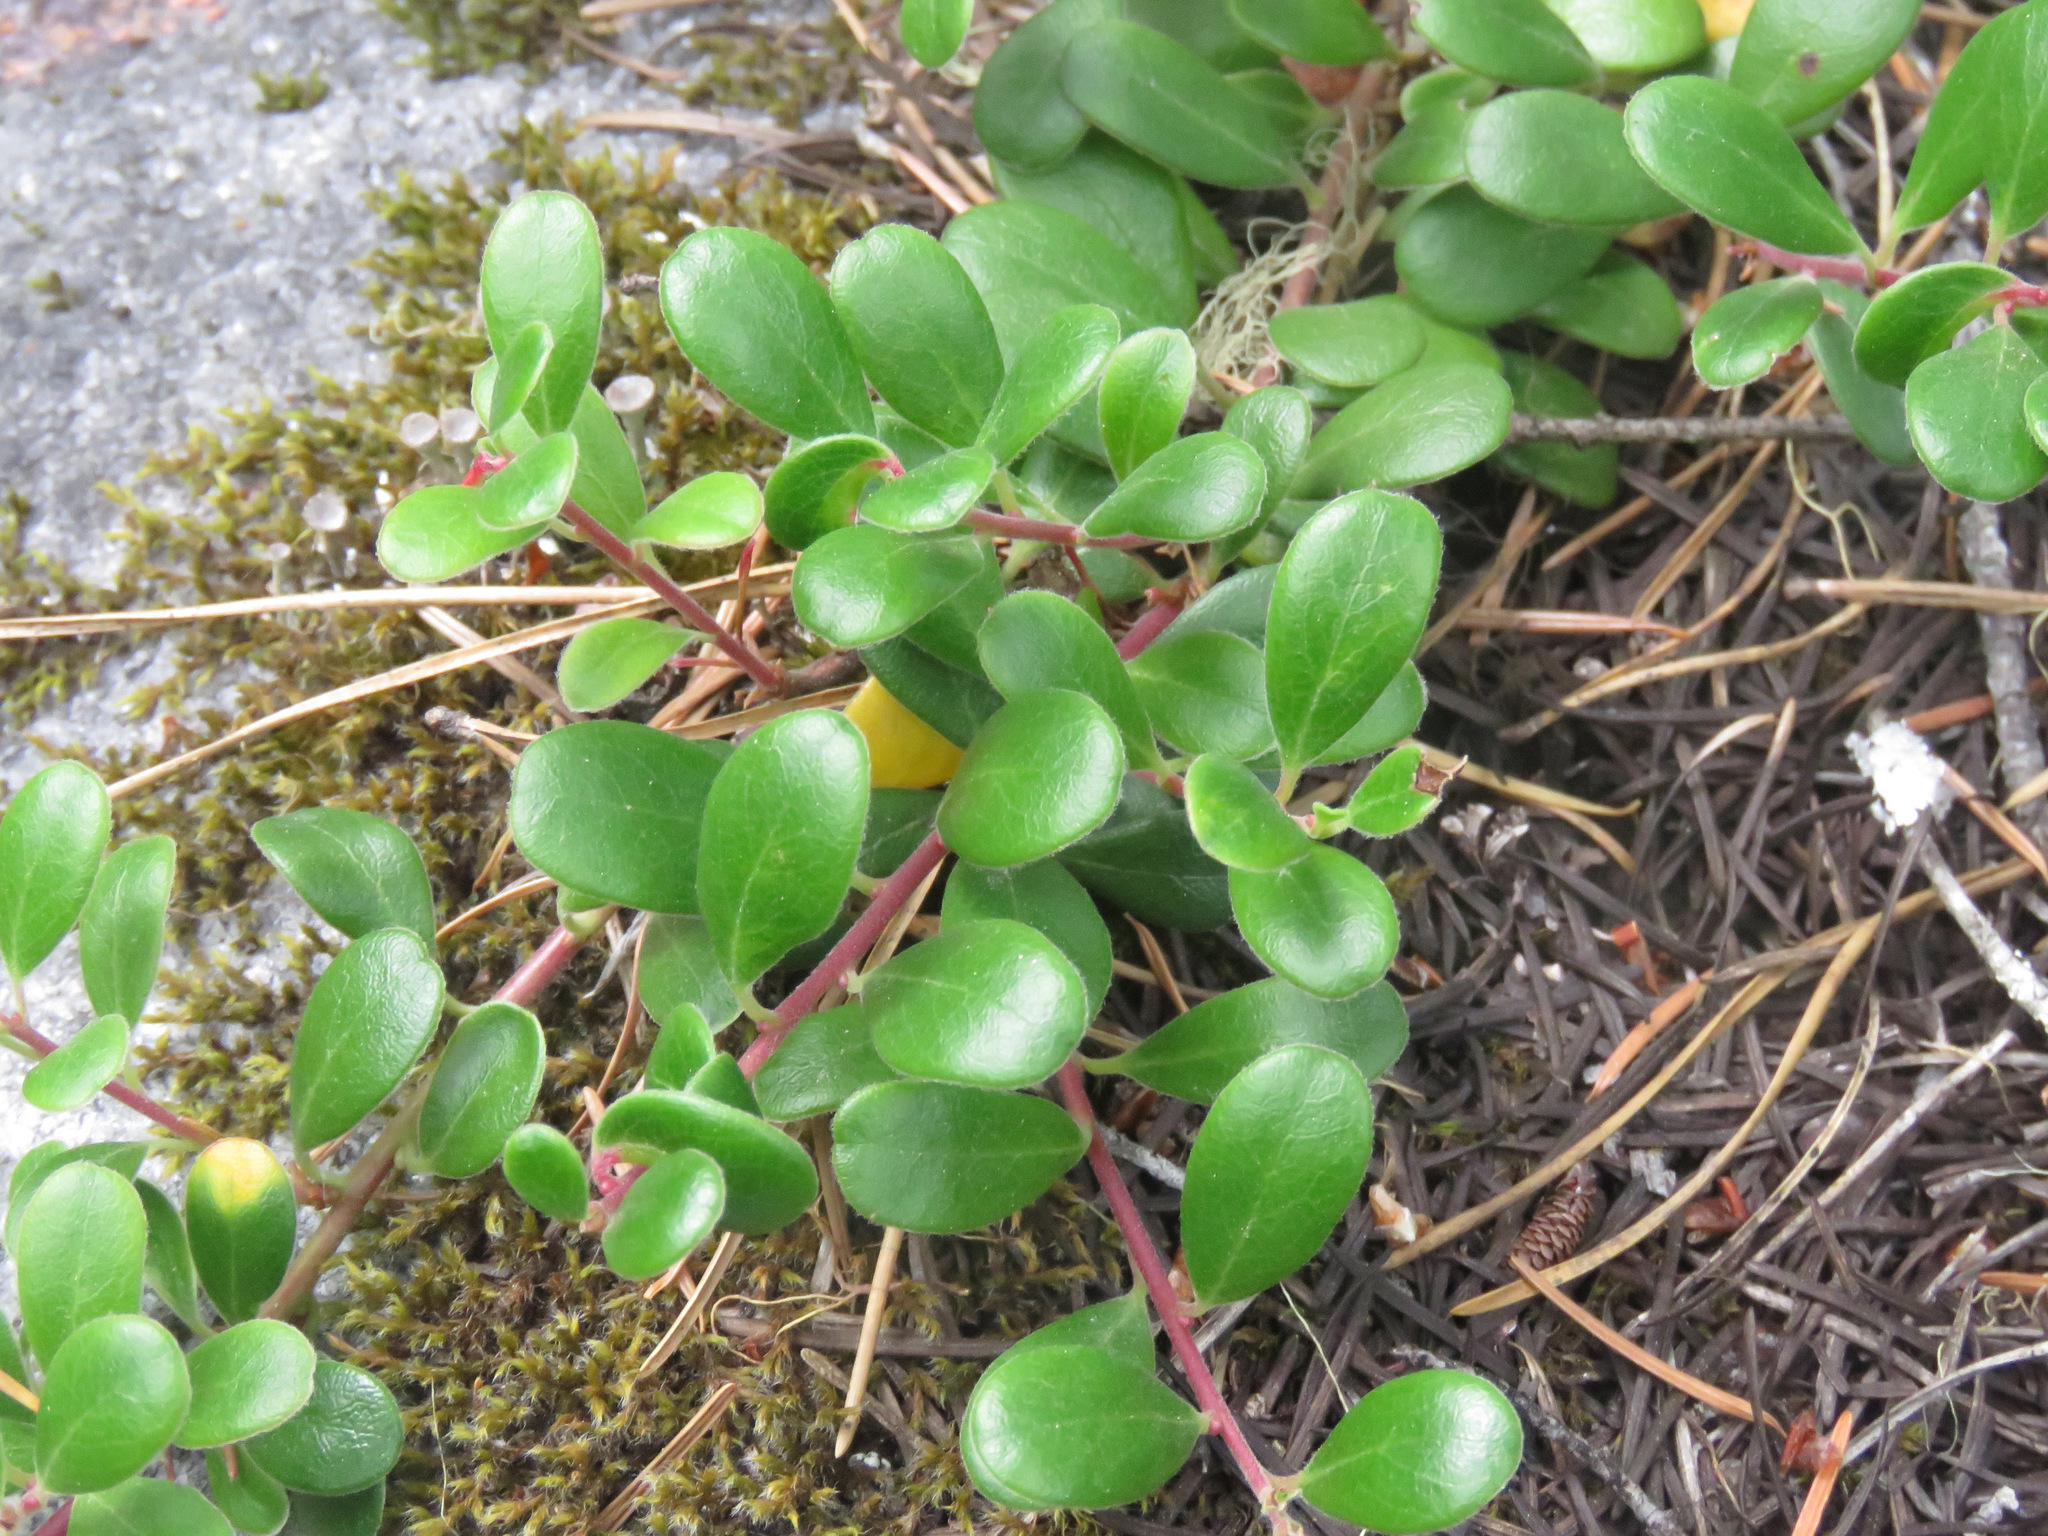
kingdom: Plantae
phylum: Tracheophyta
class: Magnoliopsida
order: Ericales
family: Ericaceae
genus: Arctostaphylos
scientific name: Arctostaphylos uva-ursi
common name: Bearberry
